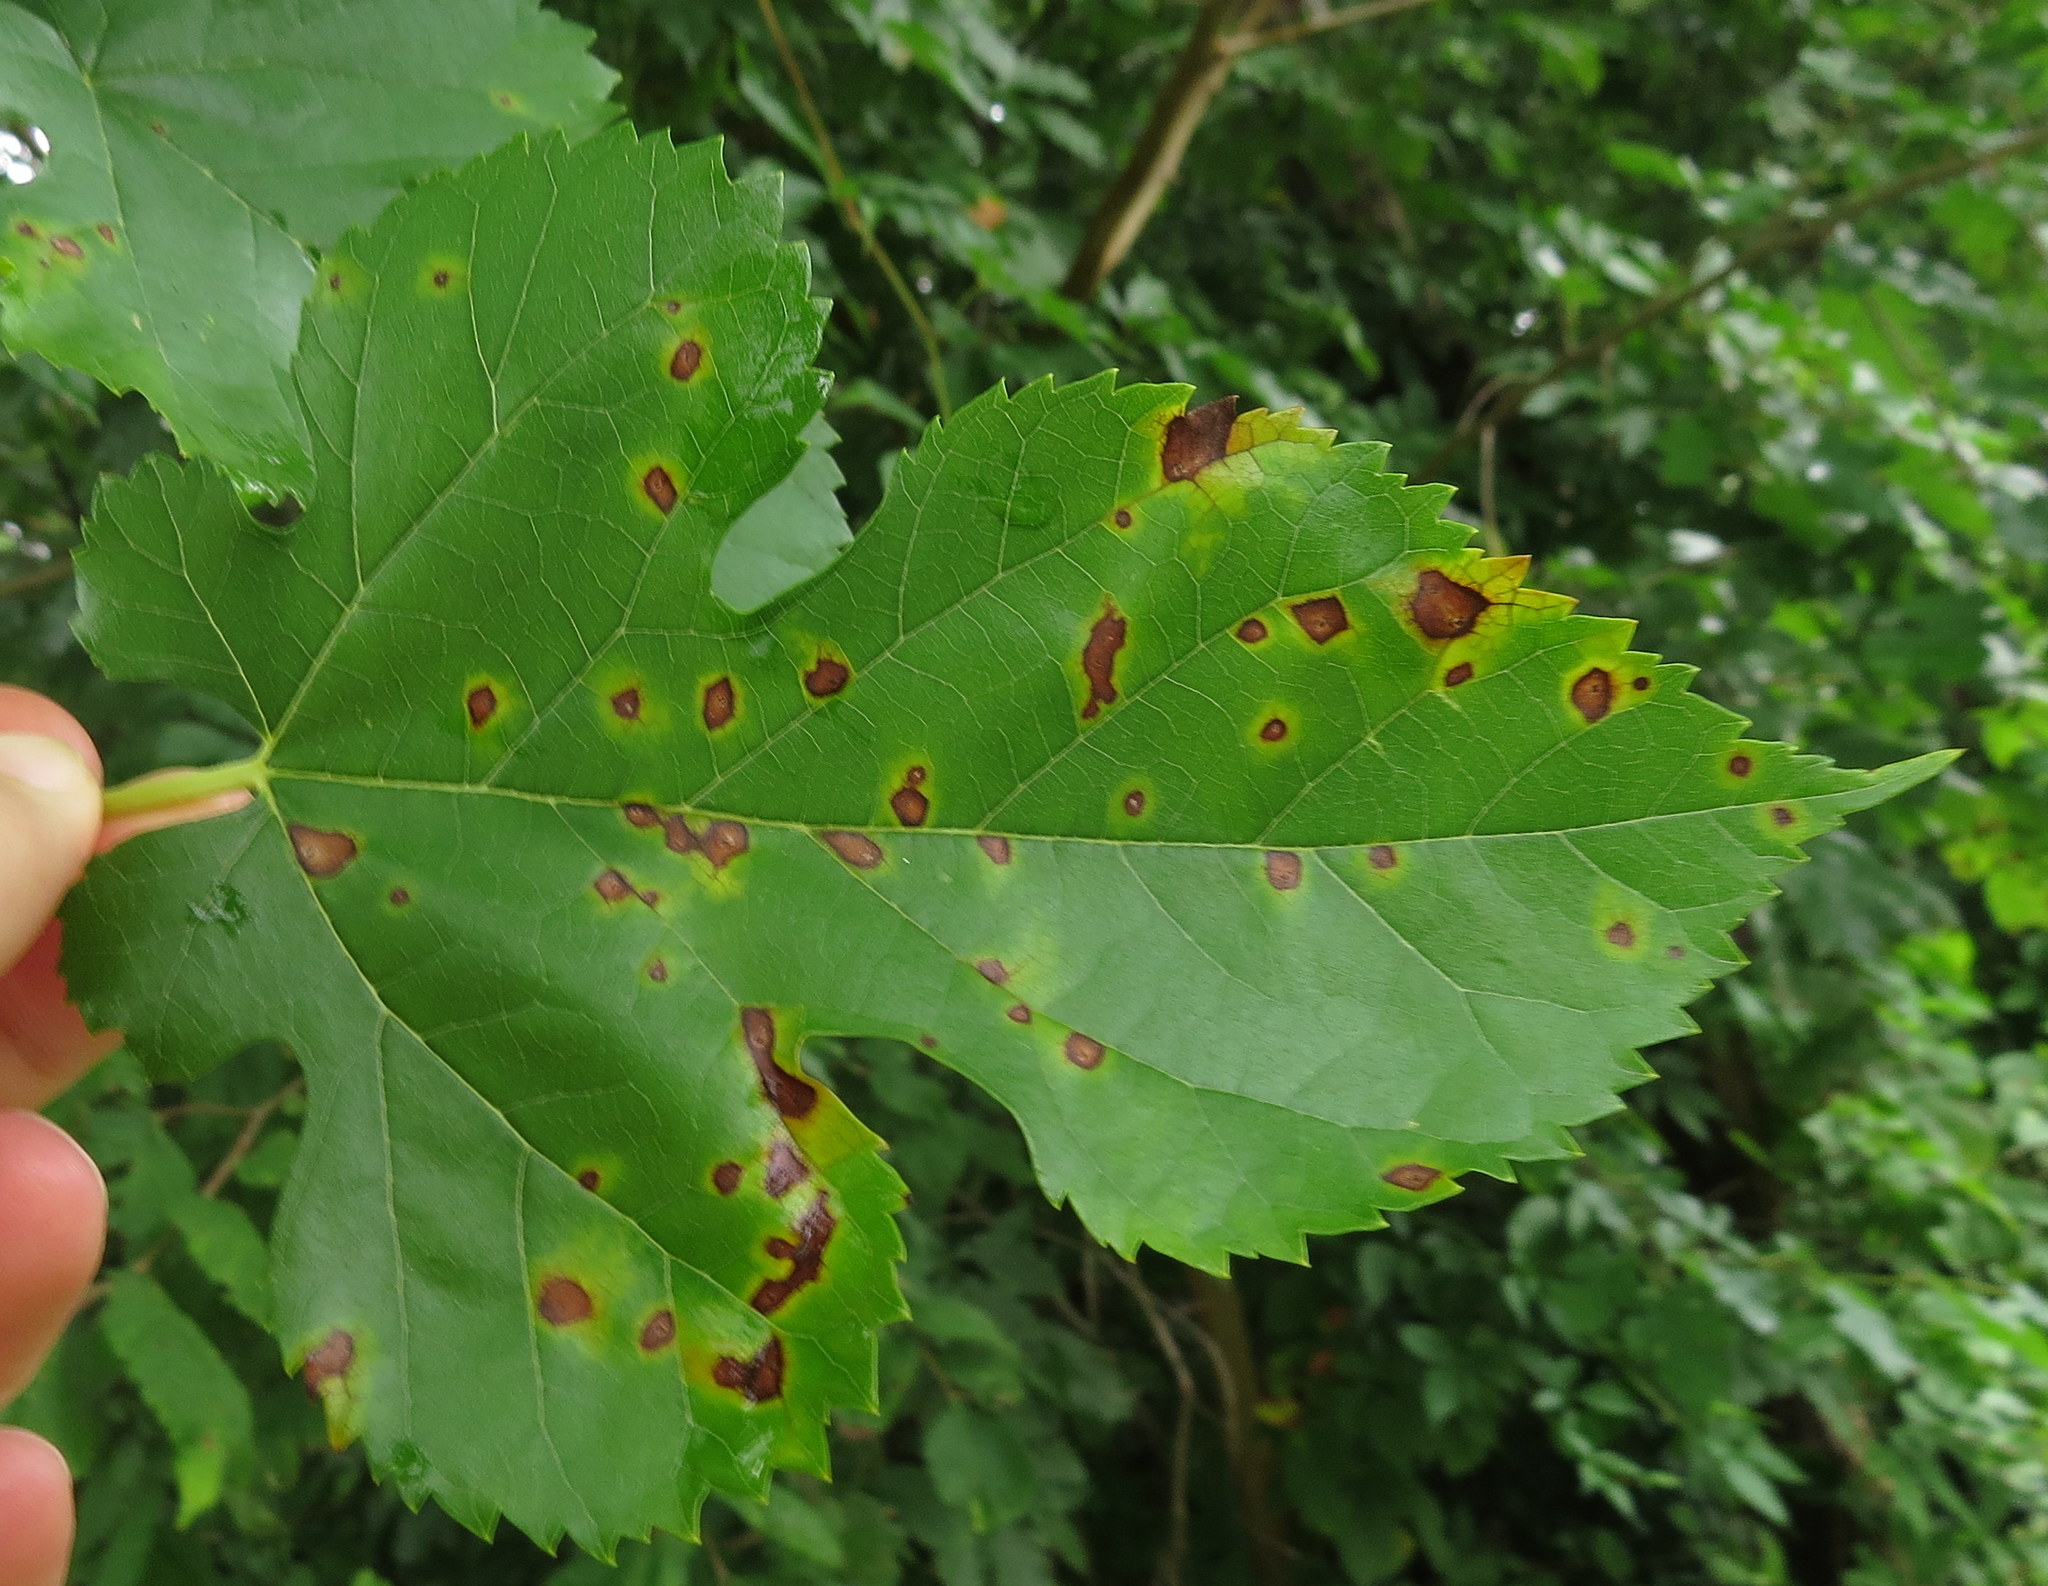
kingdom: Fungi
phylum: Ascomycota
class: Dothideomycetes
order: Mycosphaerellales
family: Mycosphaerellaceae
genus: Cercospora
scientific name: Cercospora moricola
